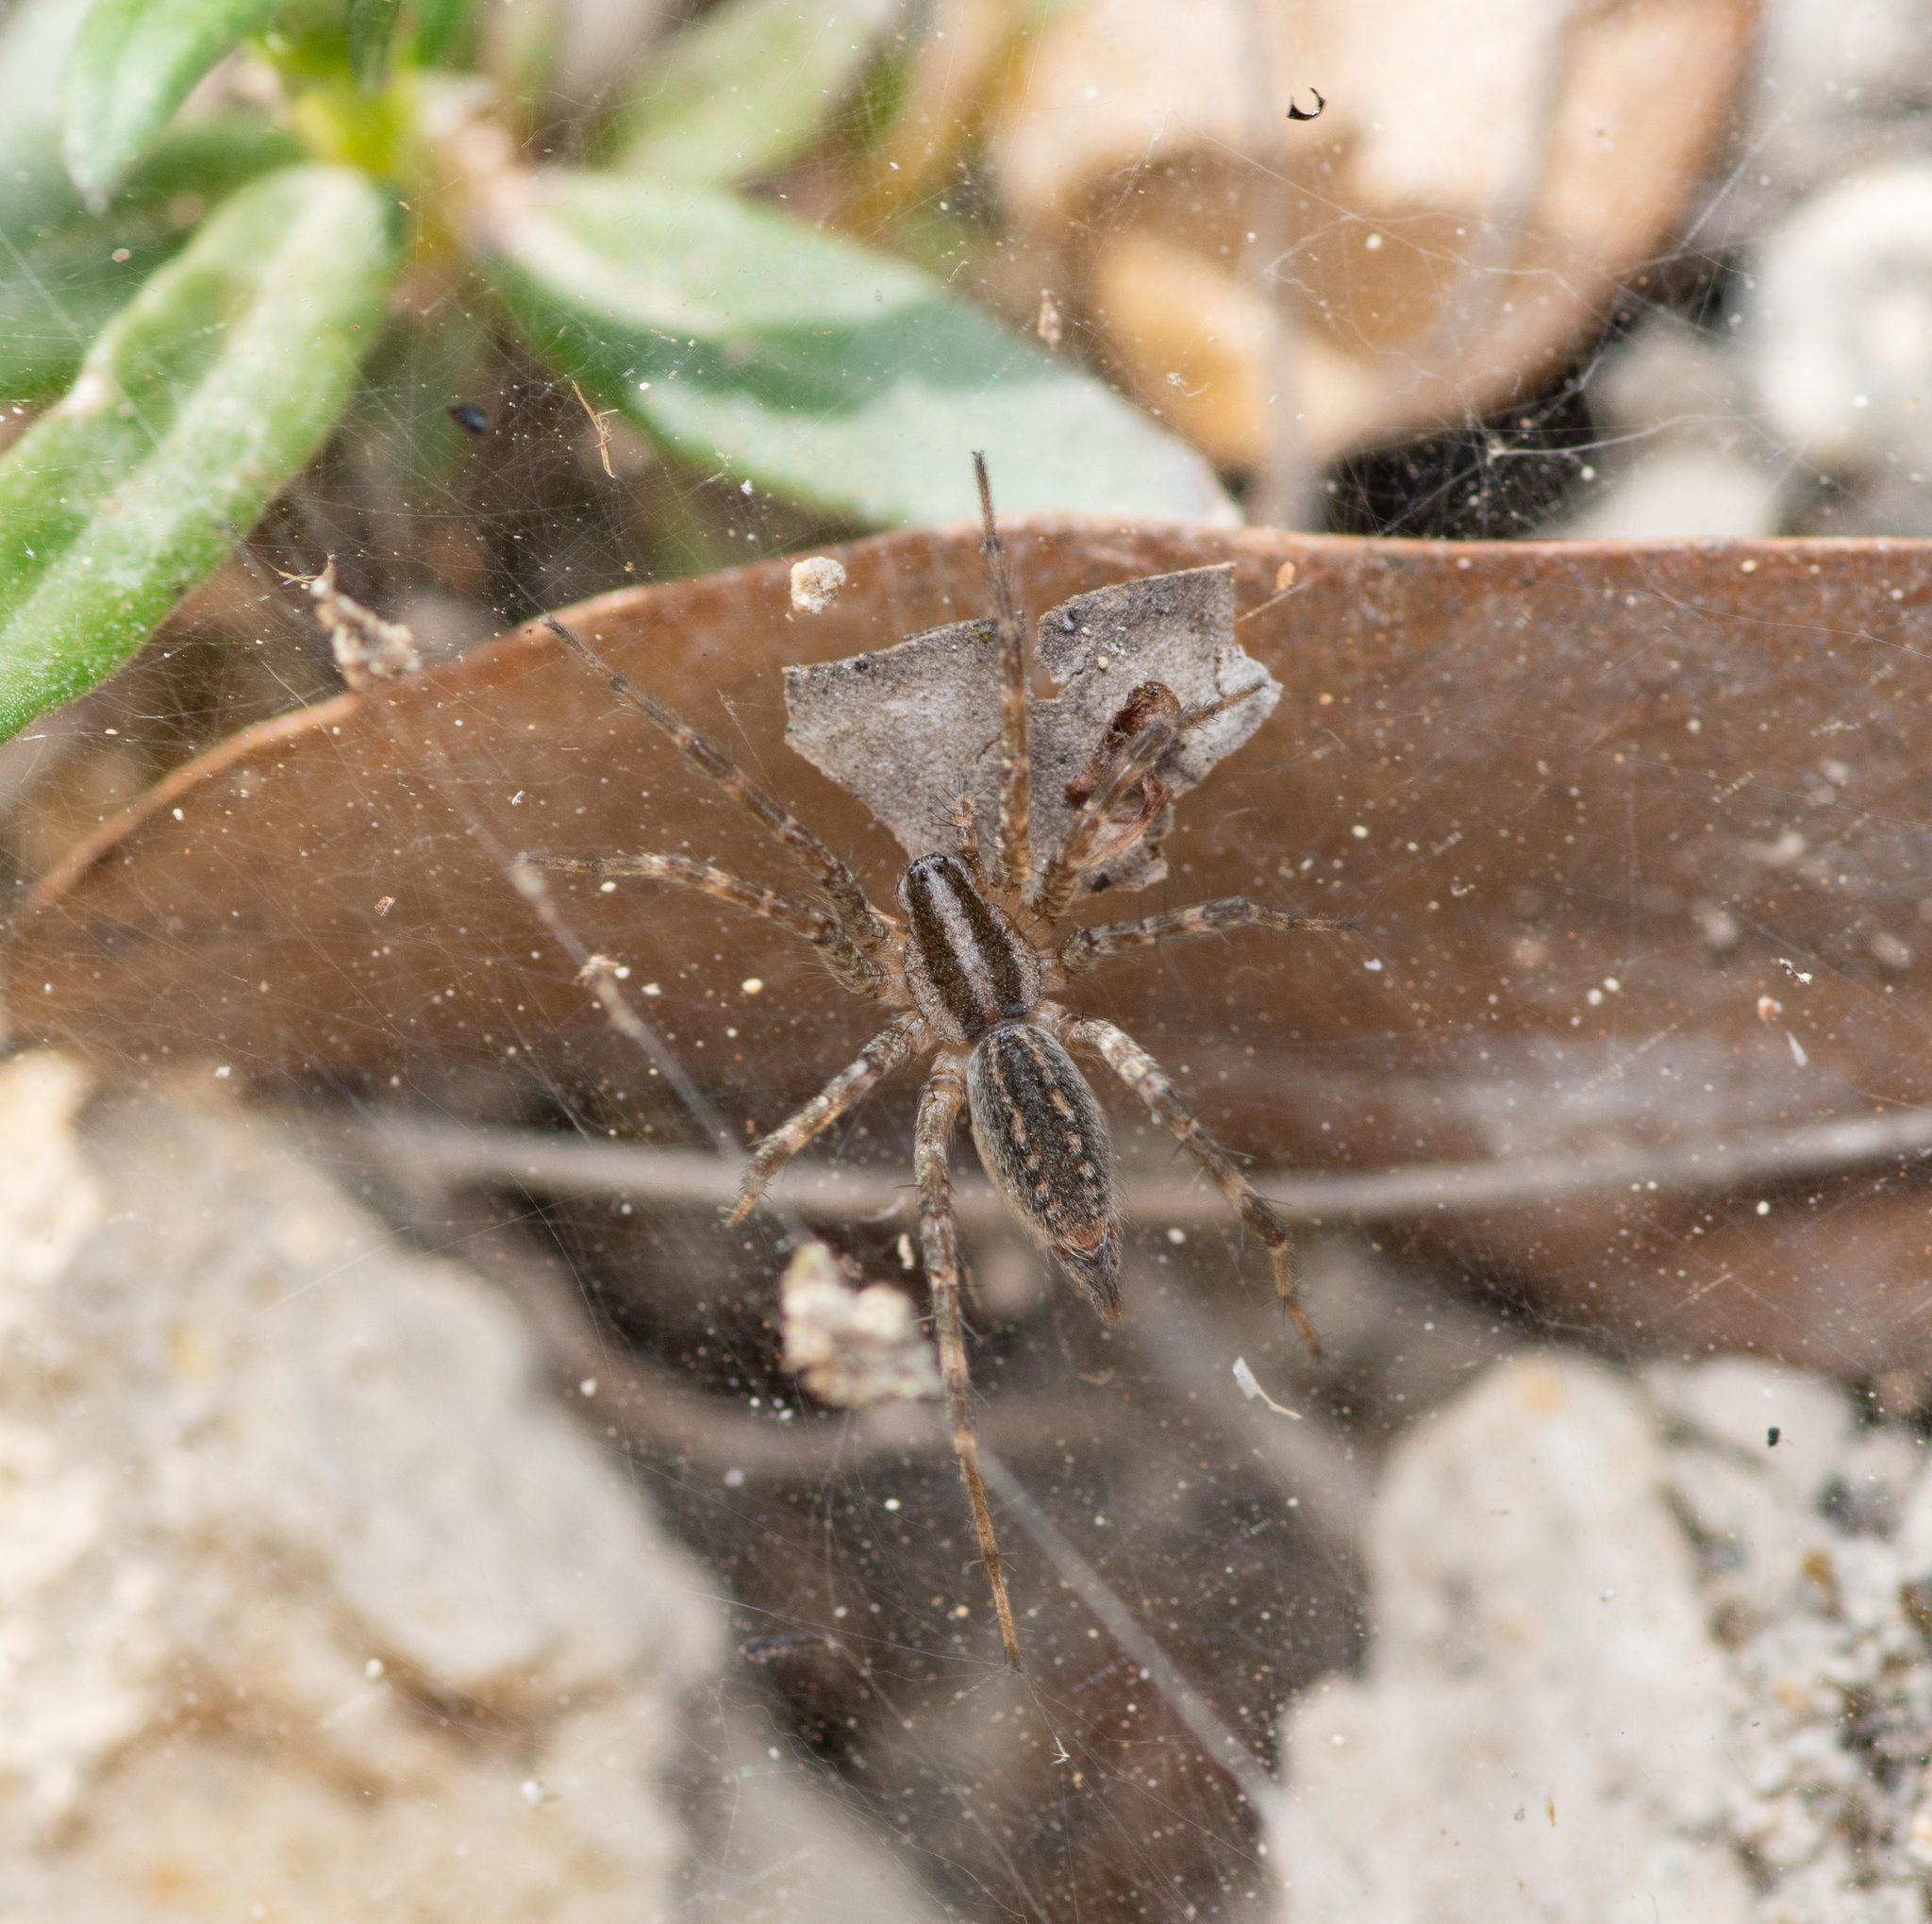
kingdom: Animalia
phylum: Arthropoda
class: Arachnida
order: Araneae
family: Agelenidae
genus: Agelenopsis
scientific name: Agelenopsis
